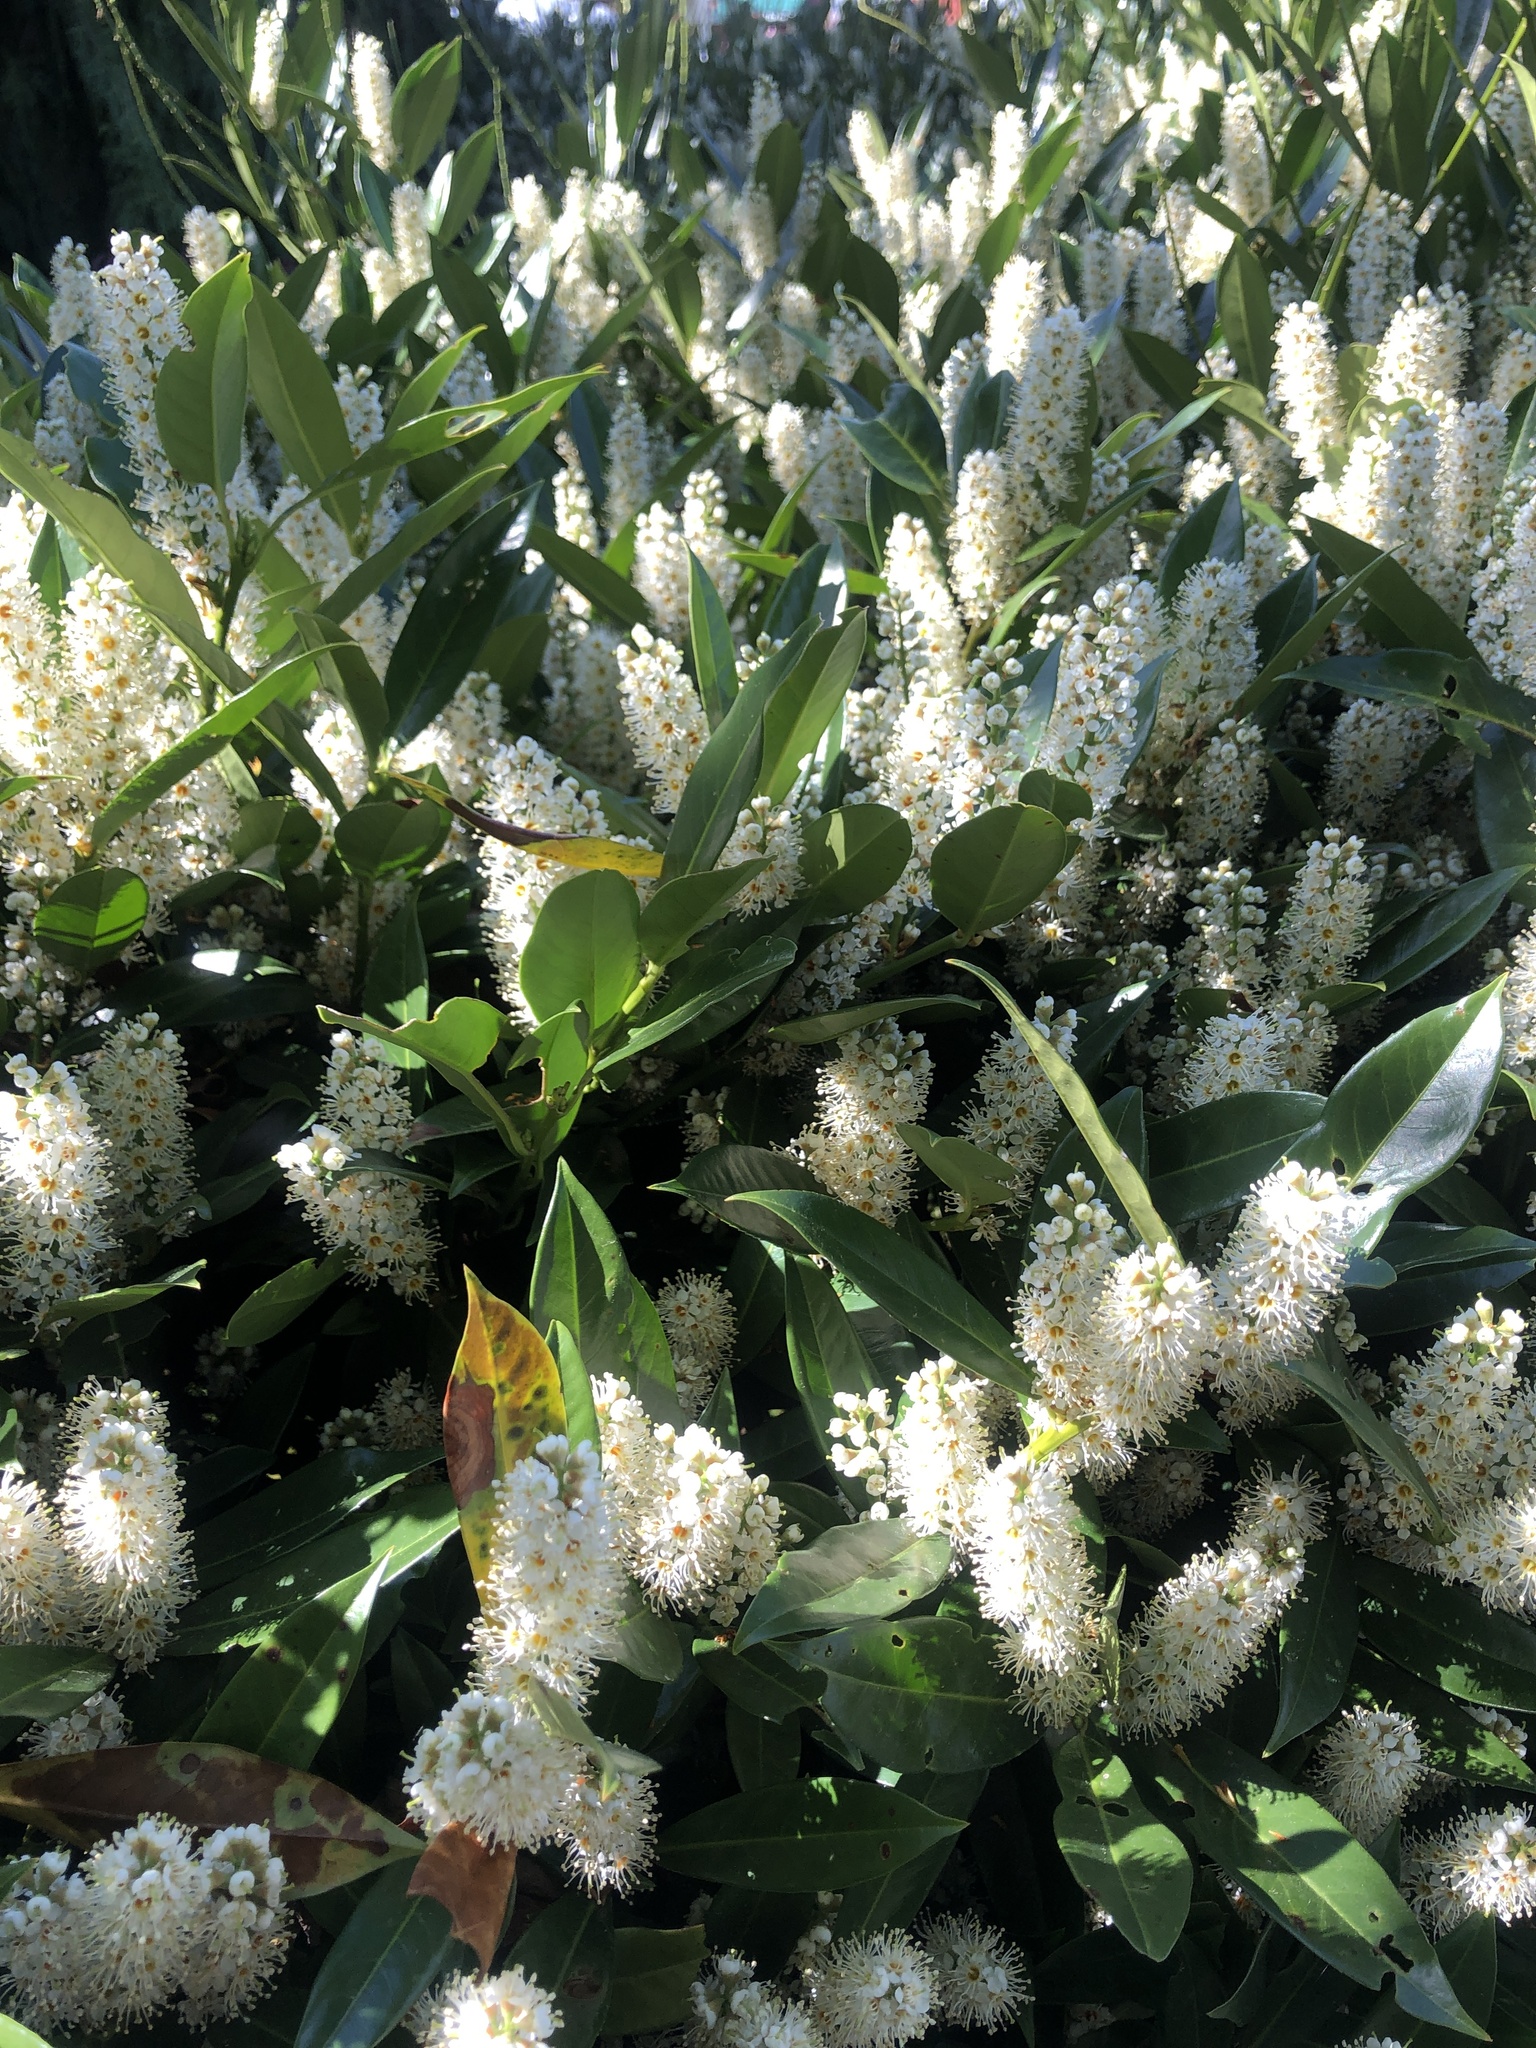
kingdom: Plantae
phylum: Tracheophyta
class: Magnoliopsida
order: Rosales
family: Rosaceae
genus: Prunus
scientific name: Prunus laurocerasus
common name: Cherry laurel
